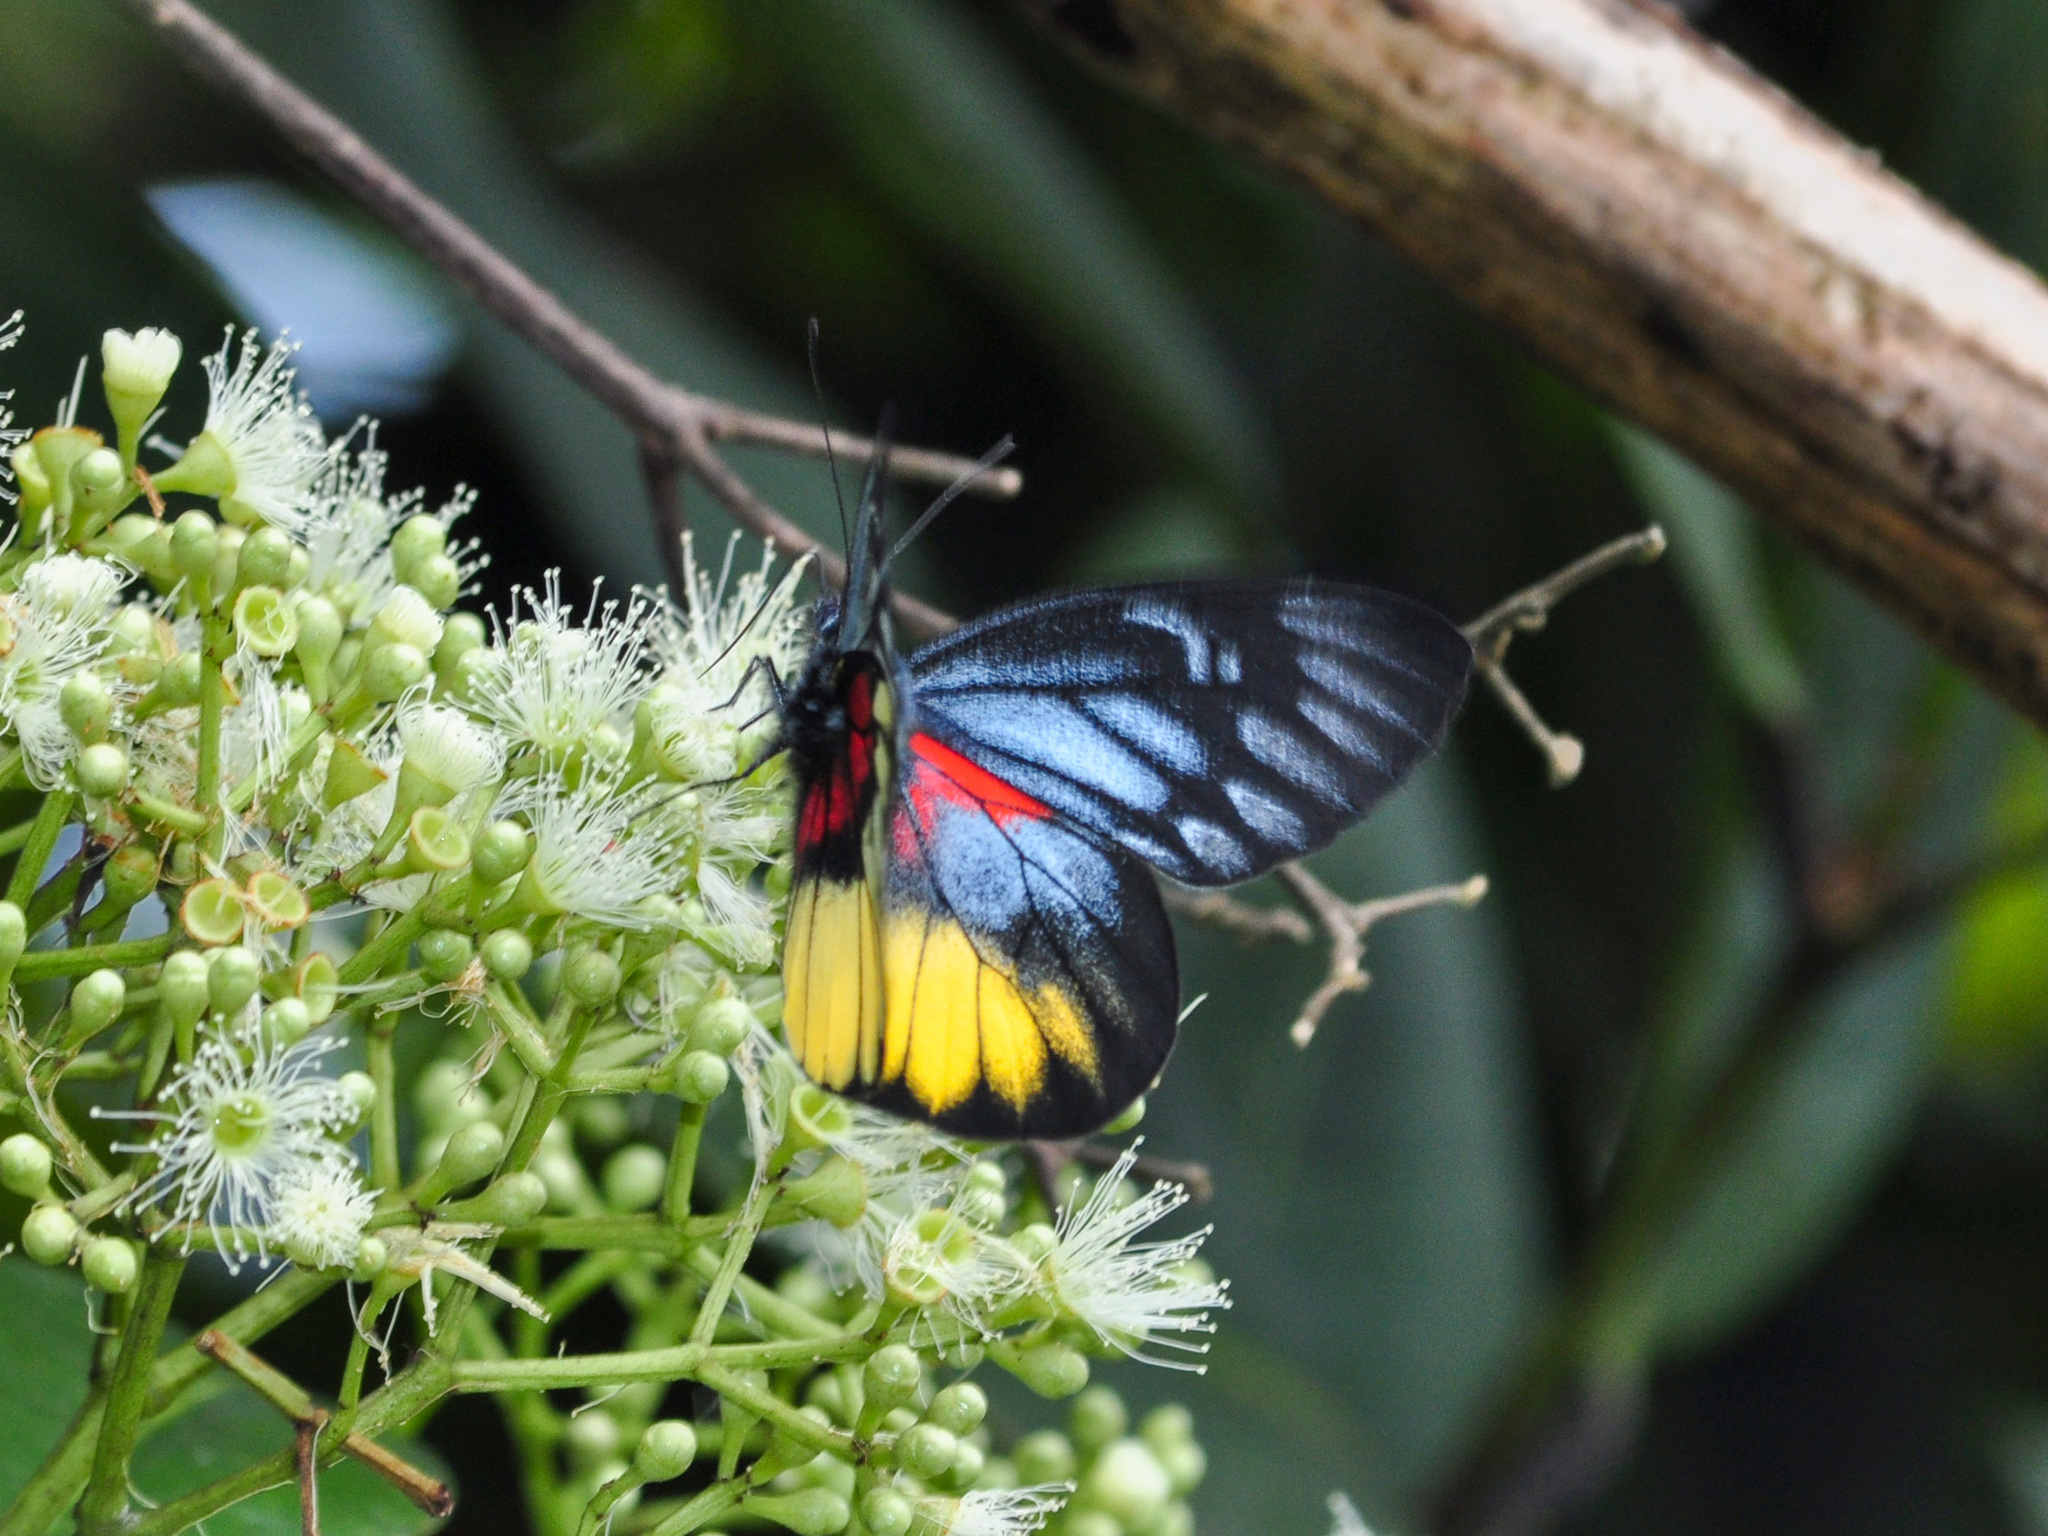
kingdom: Animalia
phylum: Arthropoda
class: Insecta
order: Lepidoptera
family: Pieridae
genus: Delias
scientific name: Delias ninus
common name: Malayan jezebel
